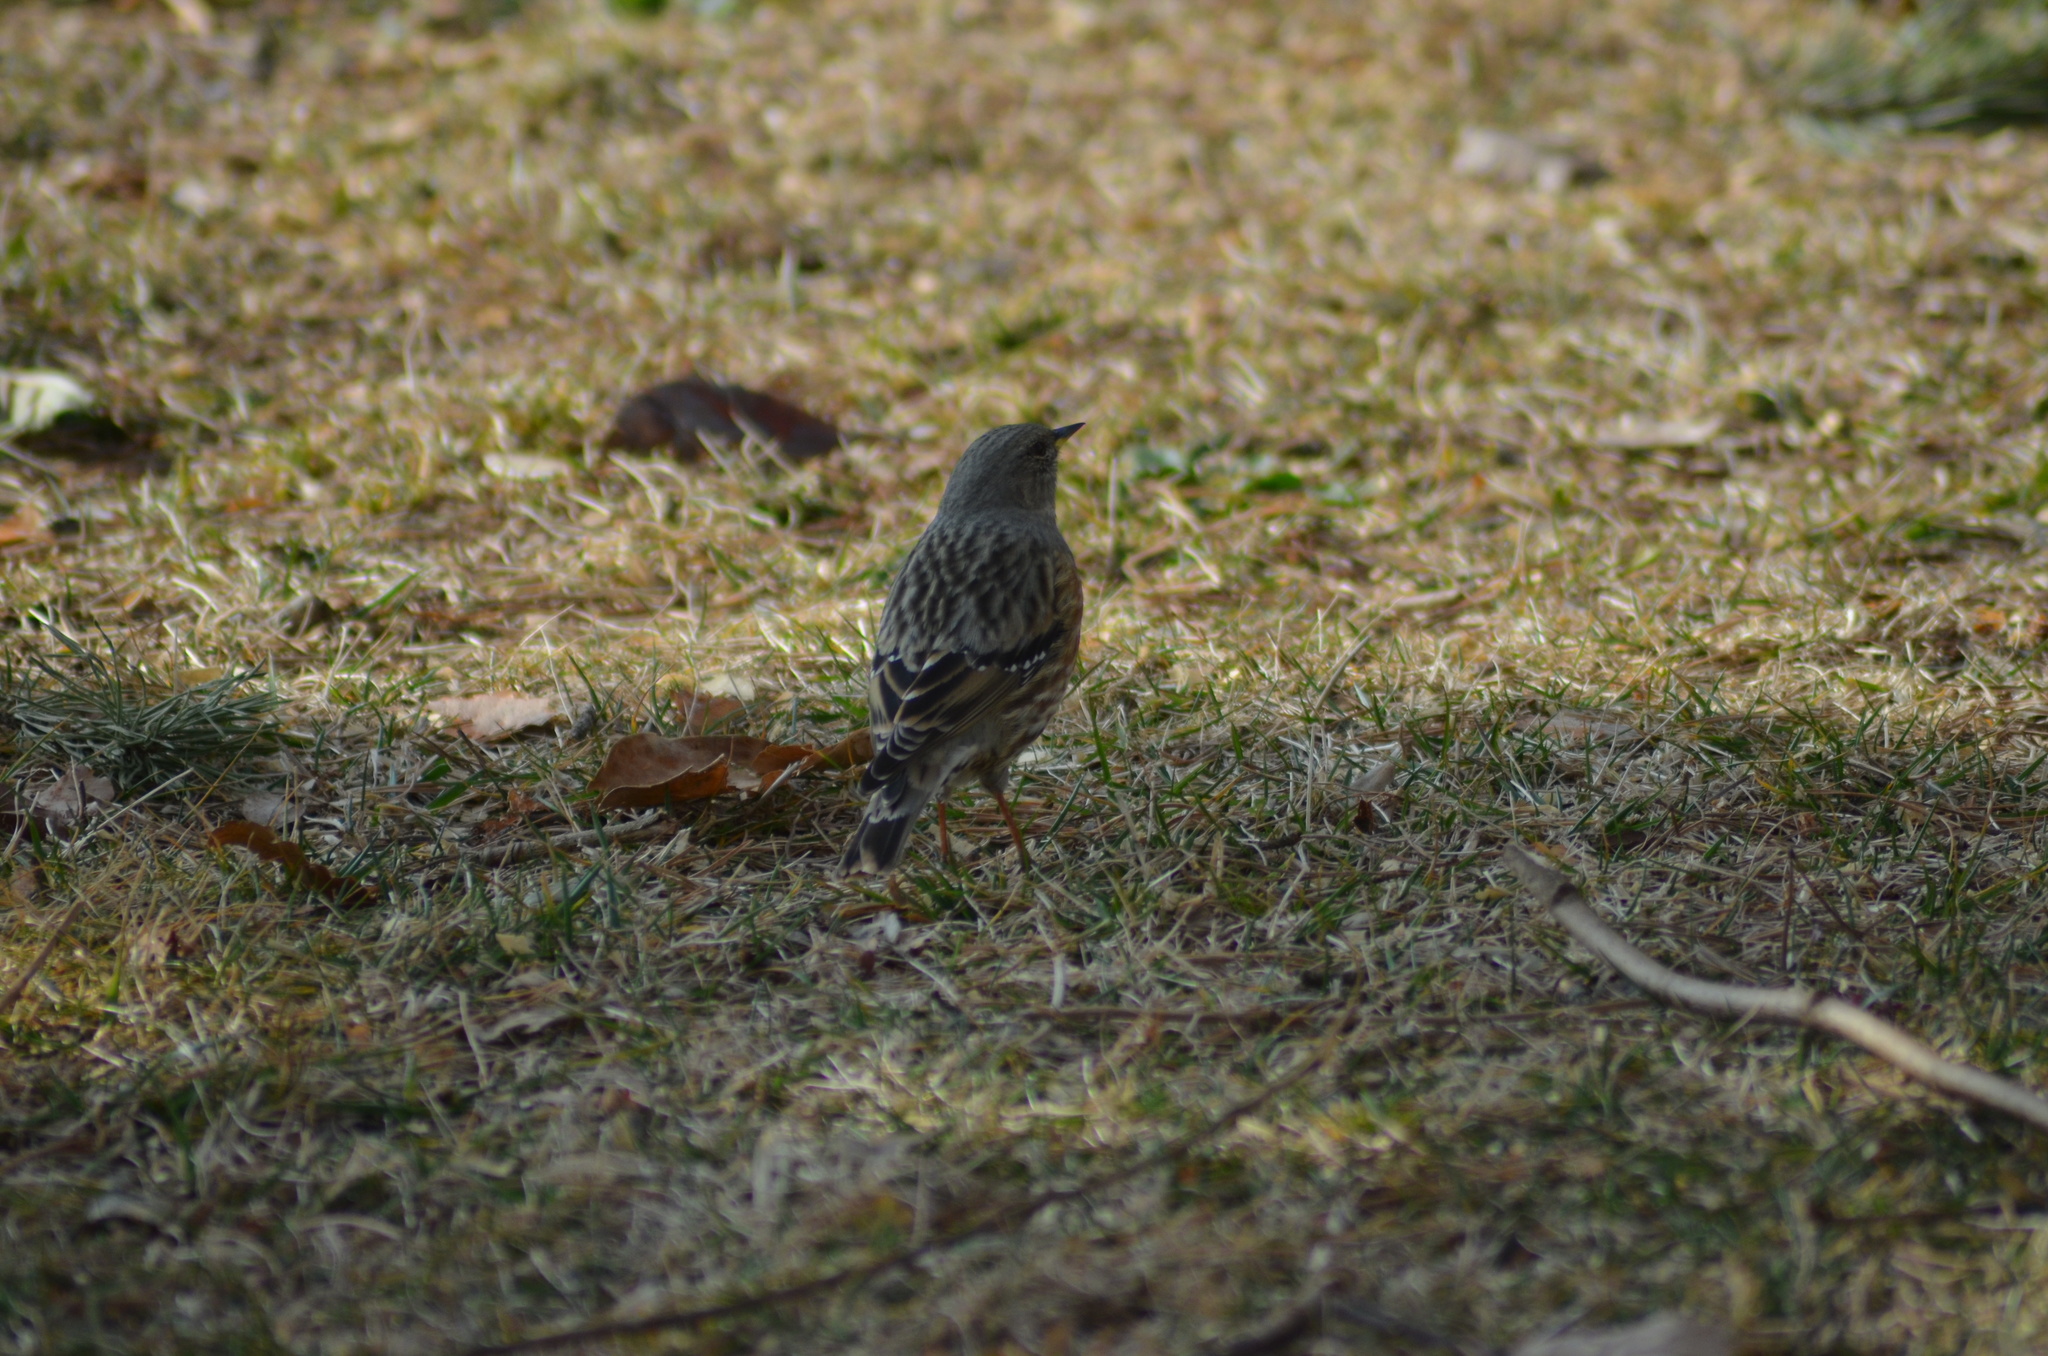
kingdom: Animalia
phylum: Chordata
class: Aves
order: Passeriformes
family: Prunellidae
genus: Prunella
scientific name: Prunella collaris
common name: Alpine accentor
